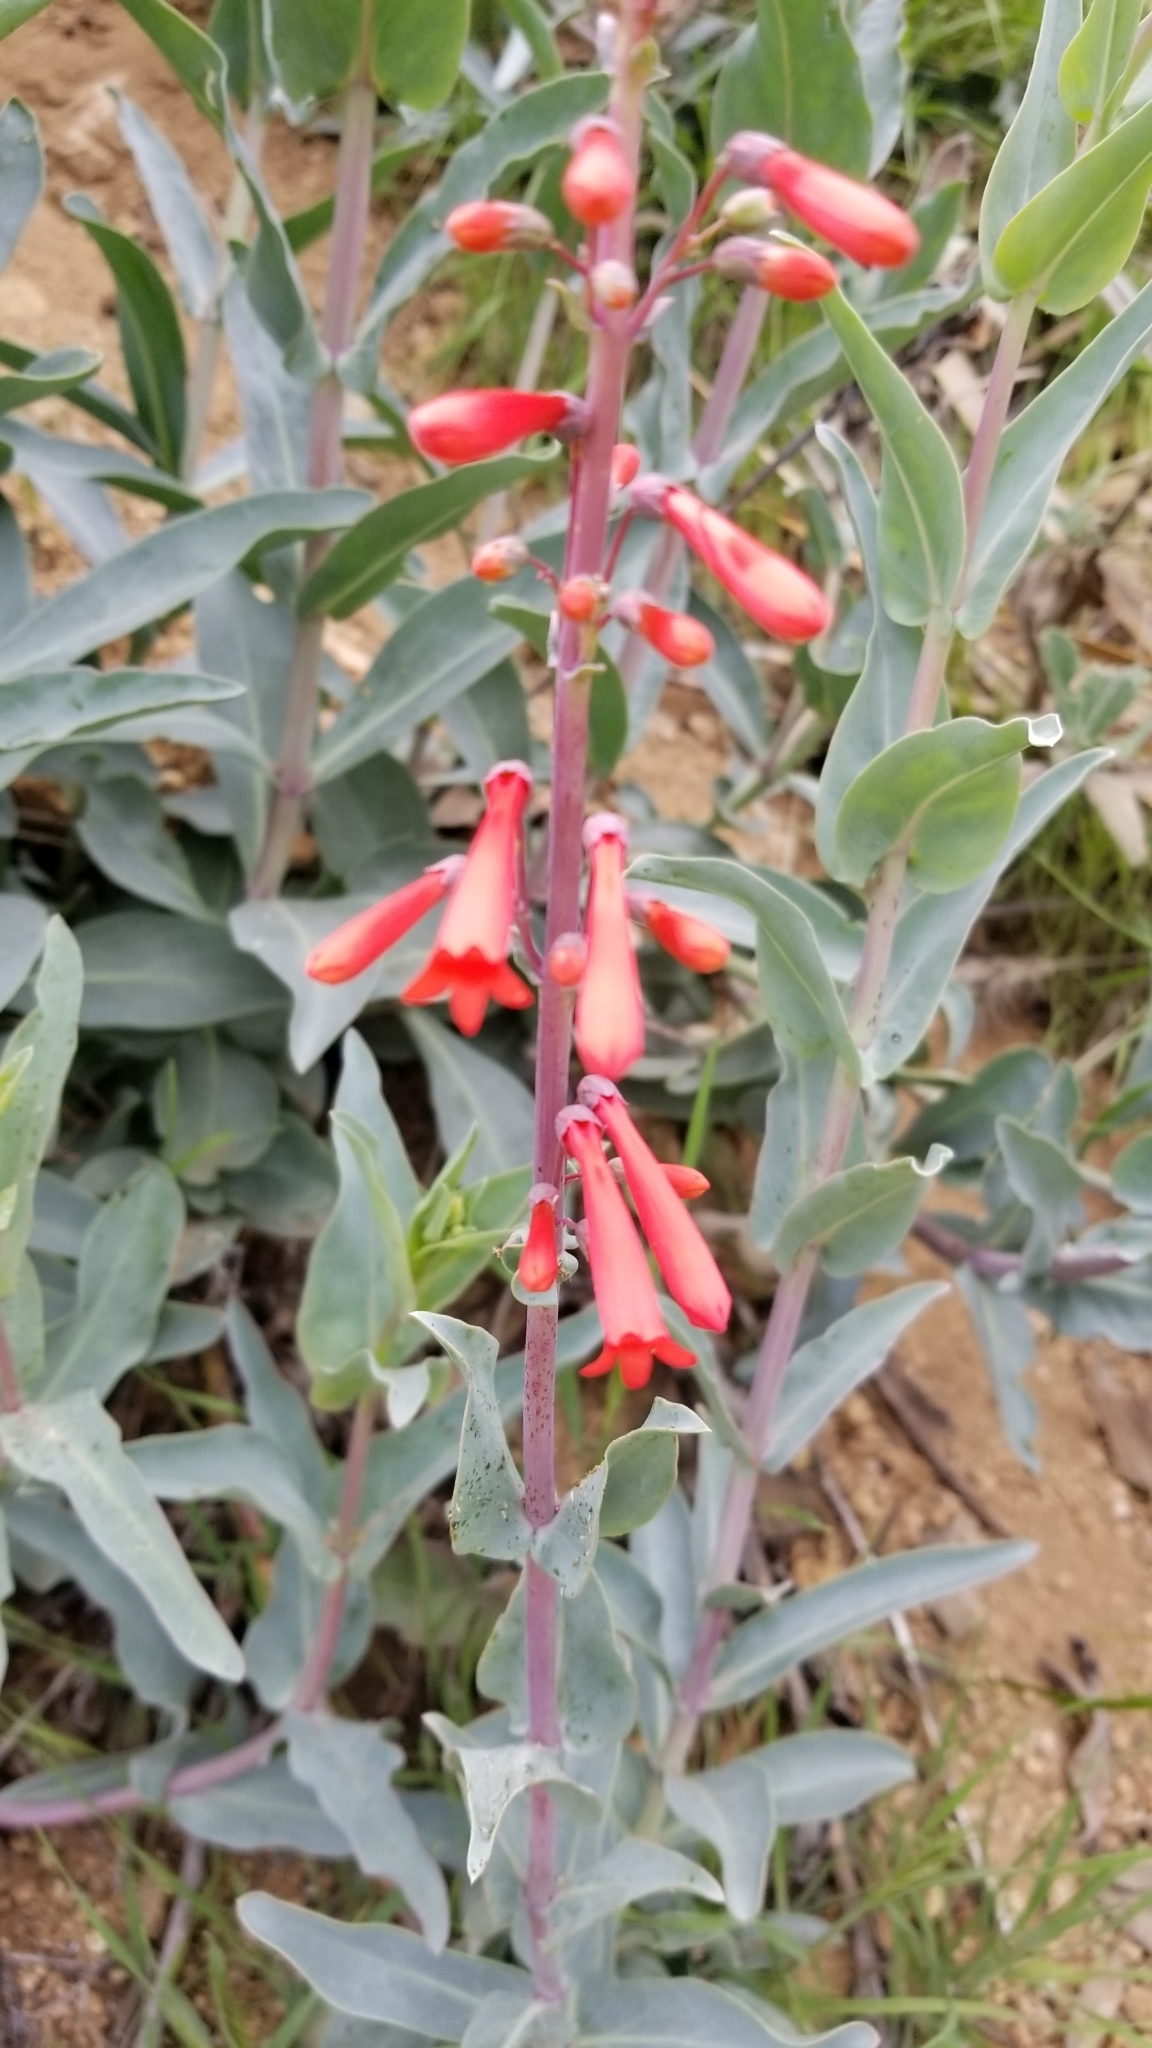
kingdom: Plantae
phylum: Tracheophyta
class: Magnoliopsida
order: Lamiales
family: Plantaginaceae
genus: Penstemon
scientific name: Penstemon centranthifolius
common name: Scarlet bugler
